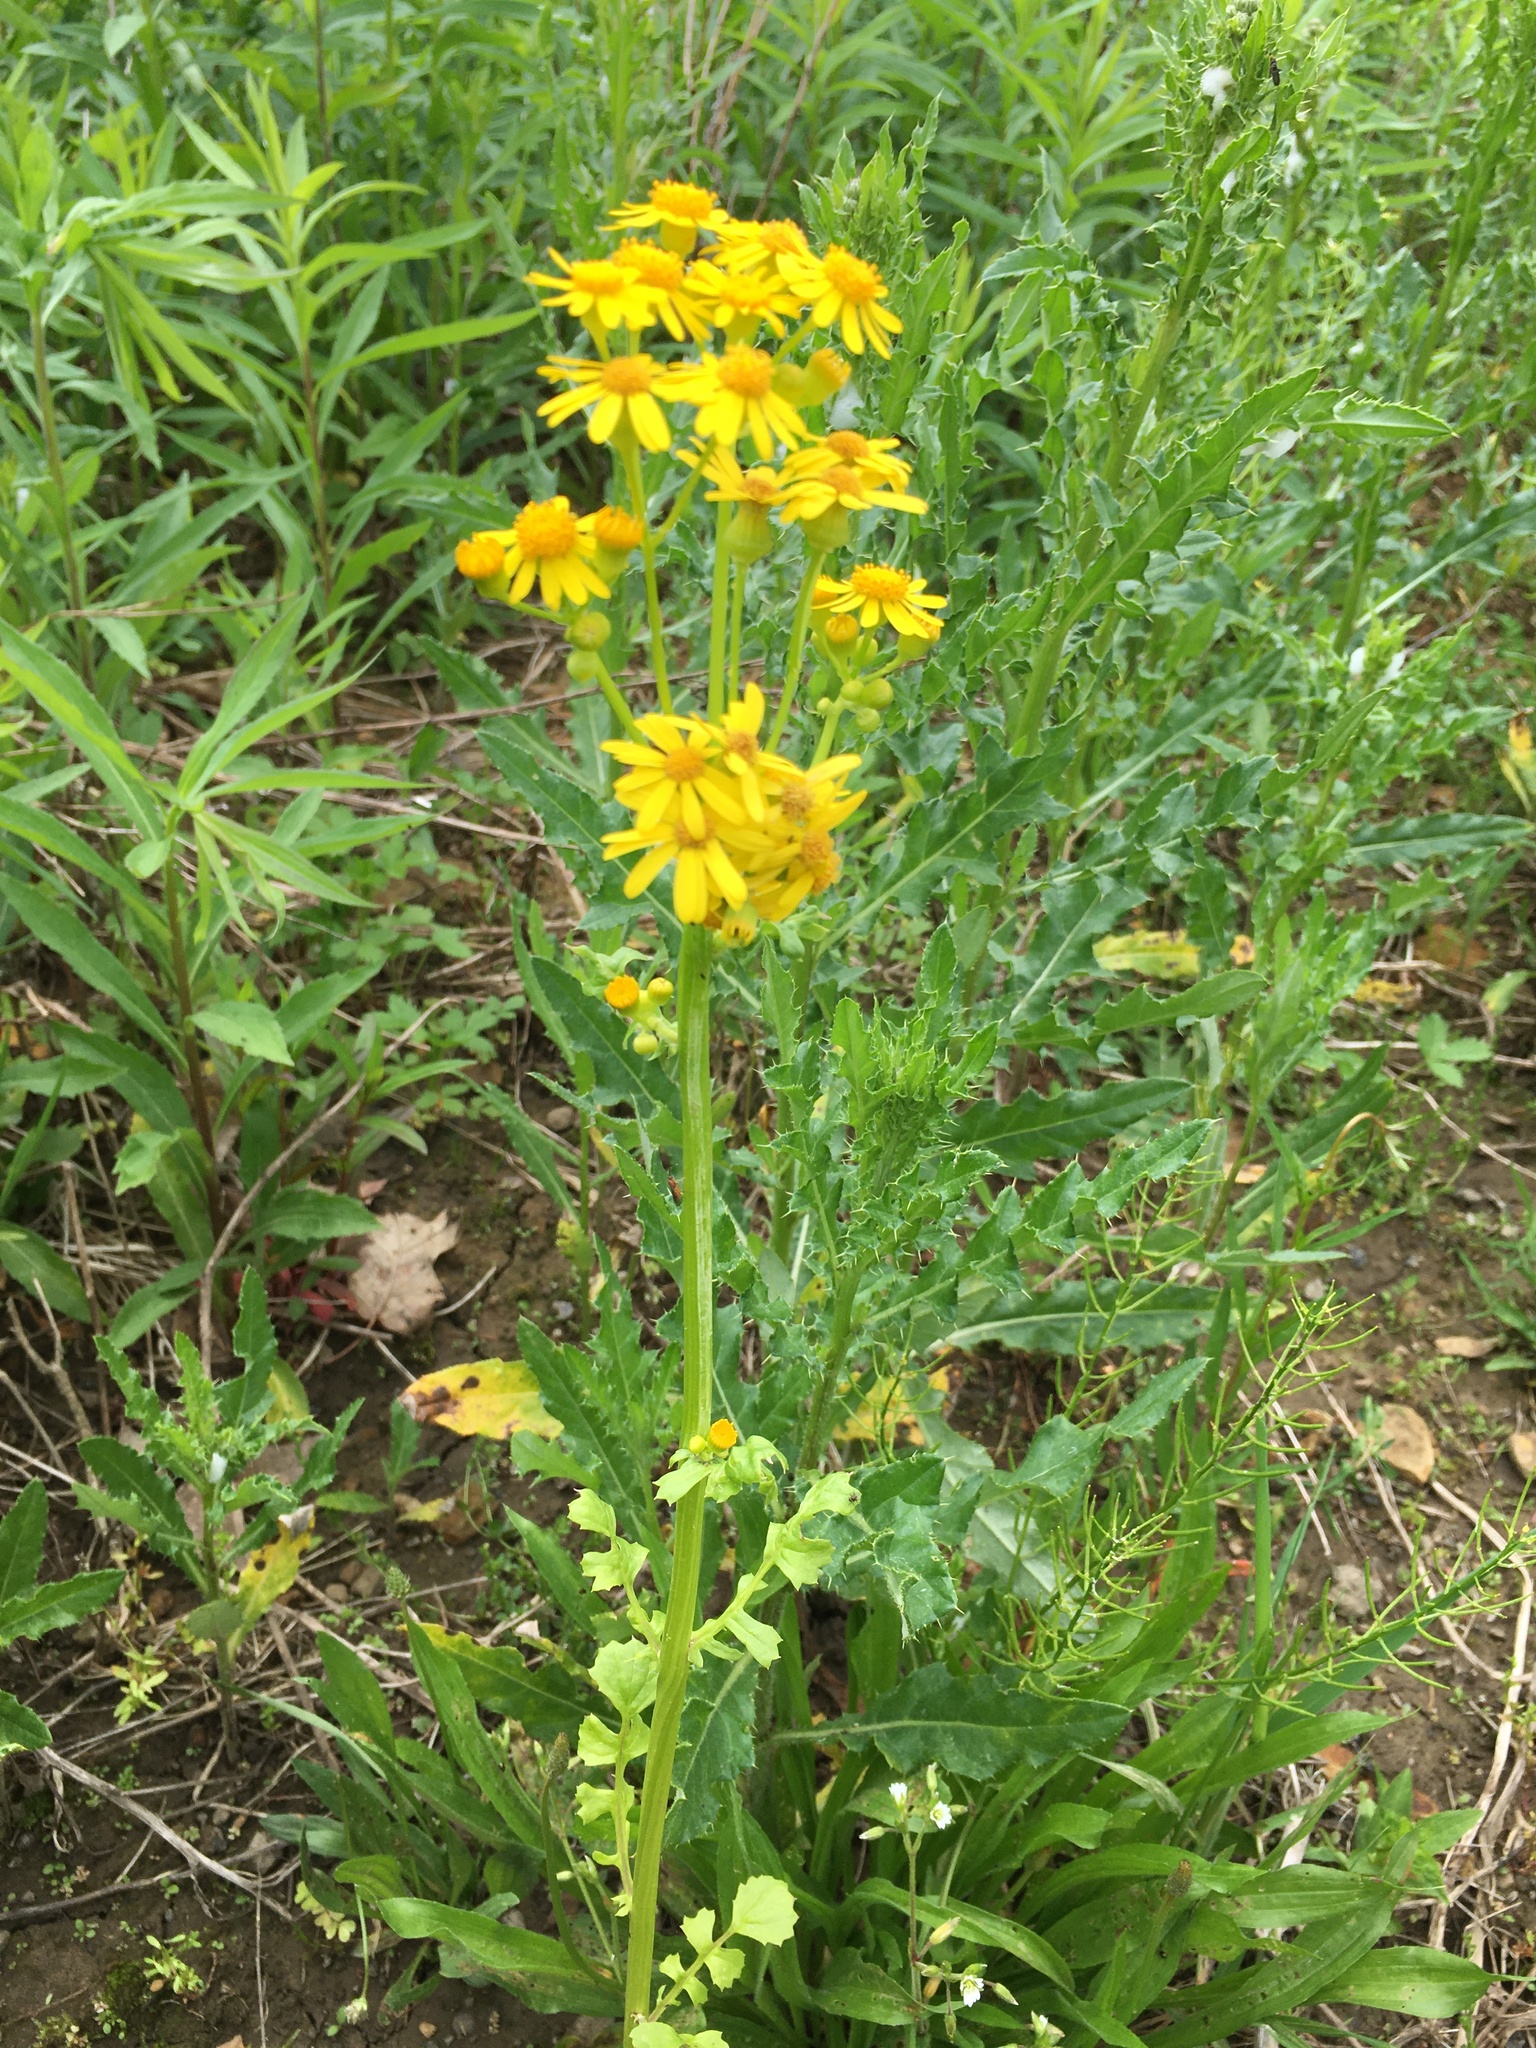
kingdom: Plantae
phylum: Tracheophyta
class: Magnoliopsida
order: Asterales
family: Asteraceae
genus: Packera
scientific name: Packera glabella
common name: Butterweed
